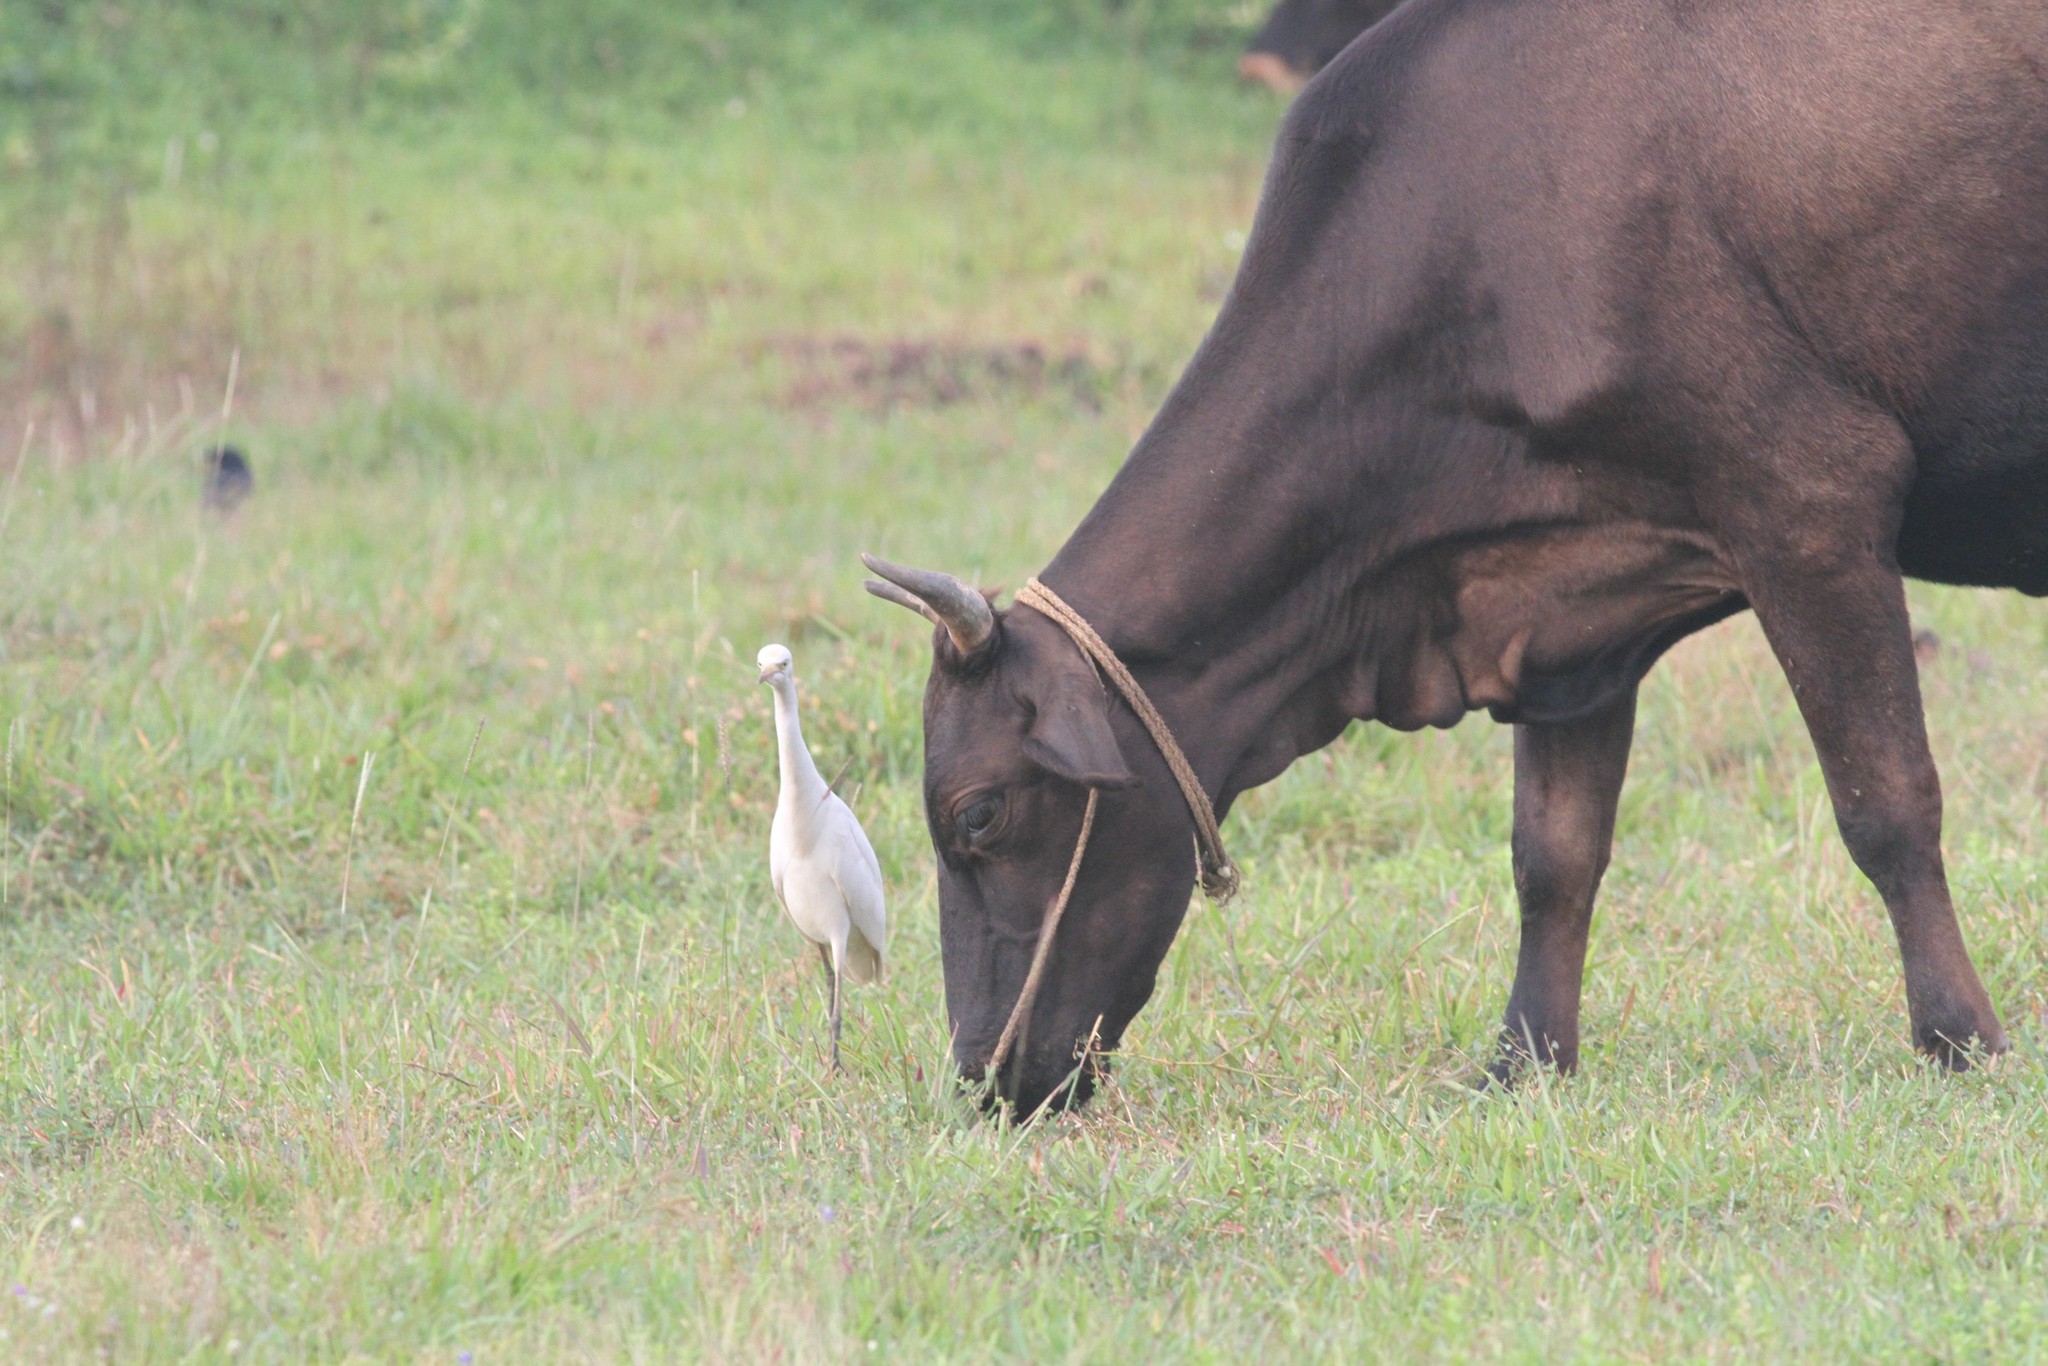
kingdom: Animalia
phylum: Chordata
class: Aves
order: Pelecaniformes
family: Ardeidae
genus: Bubulcus
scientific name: Bubulcus coromandus
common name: Eastern cattle egret
